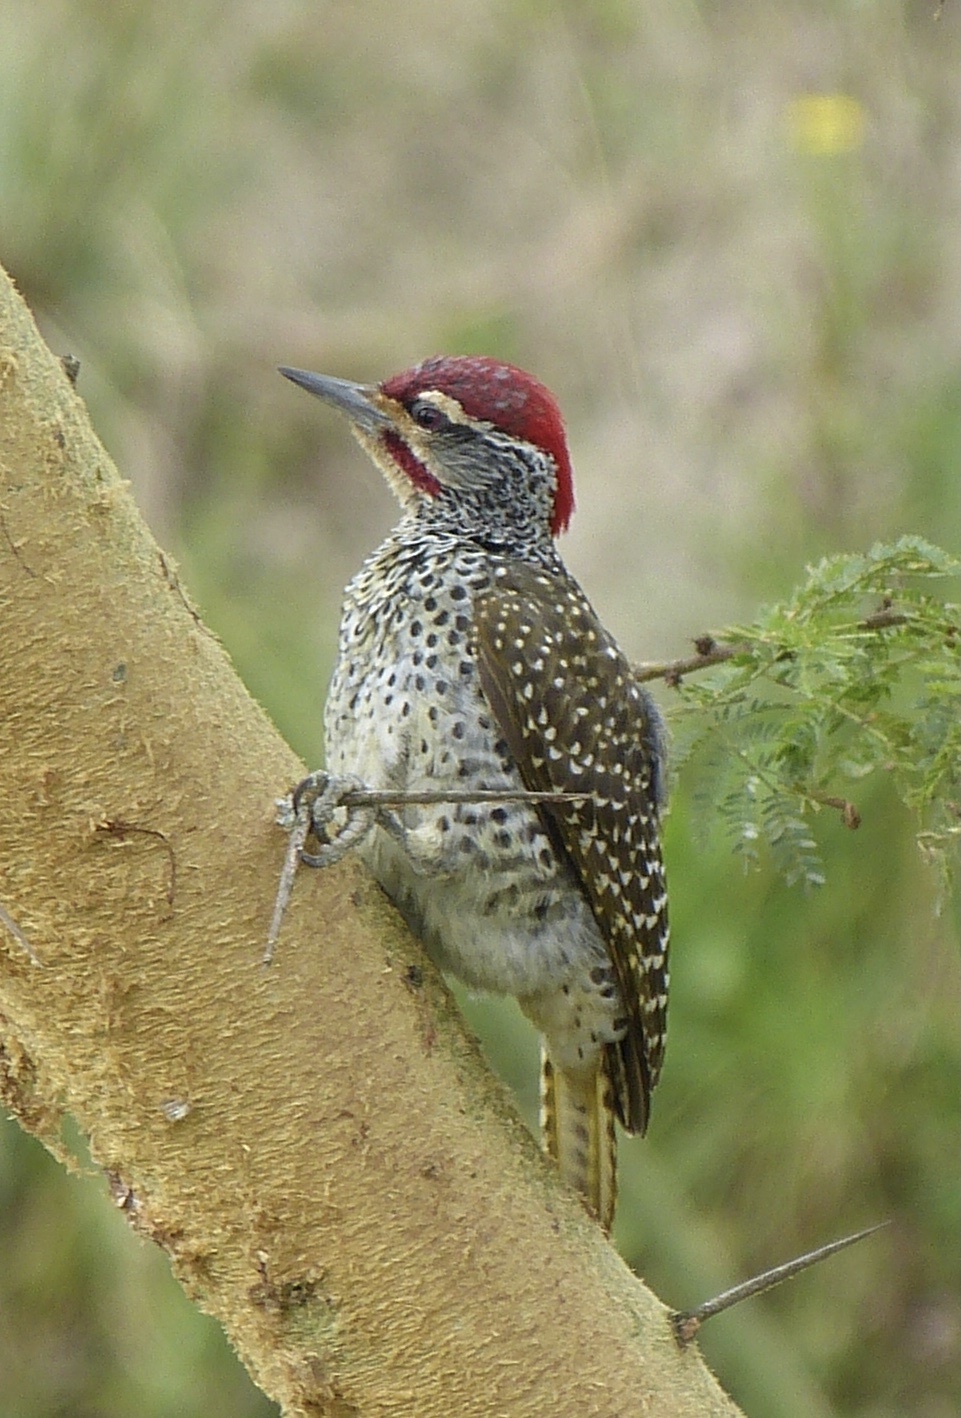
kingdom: Animalia
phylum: Chordata
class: Aves
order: Piciformes
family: Picidae
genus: Campethera
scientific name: Campethera nubica
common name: Nubian woodpecker
